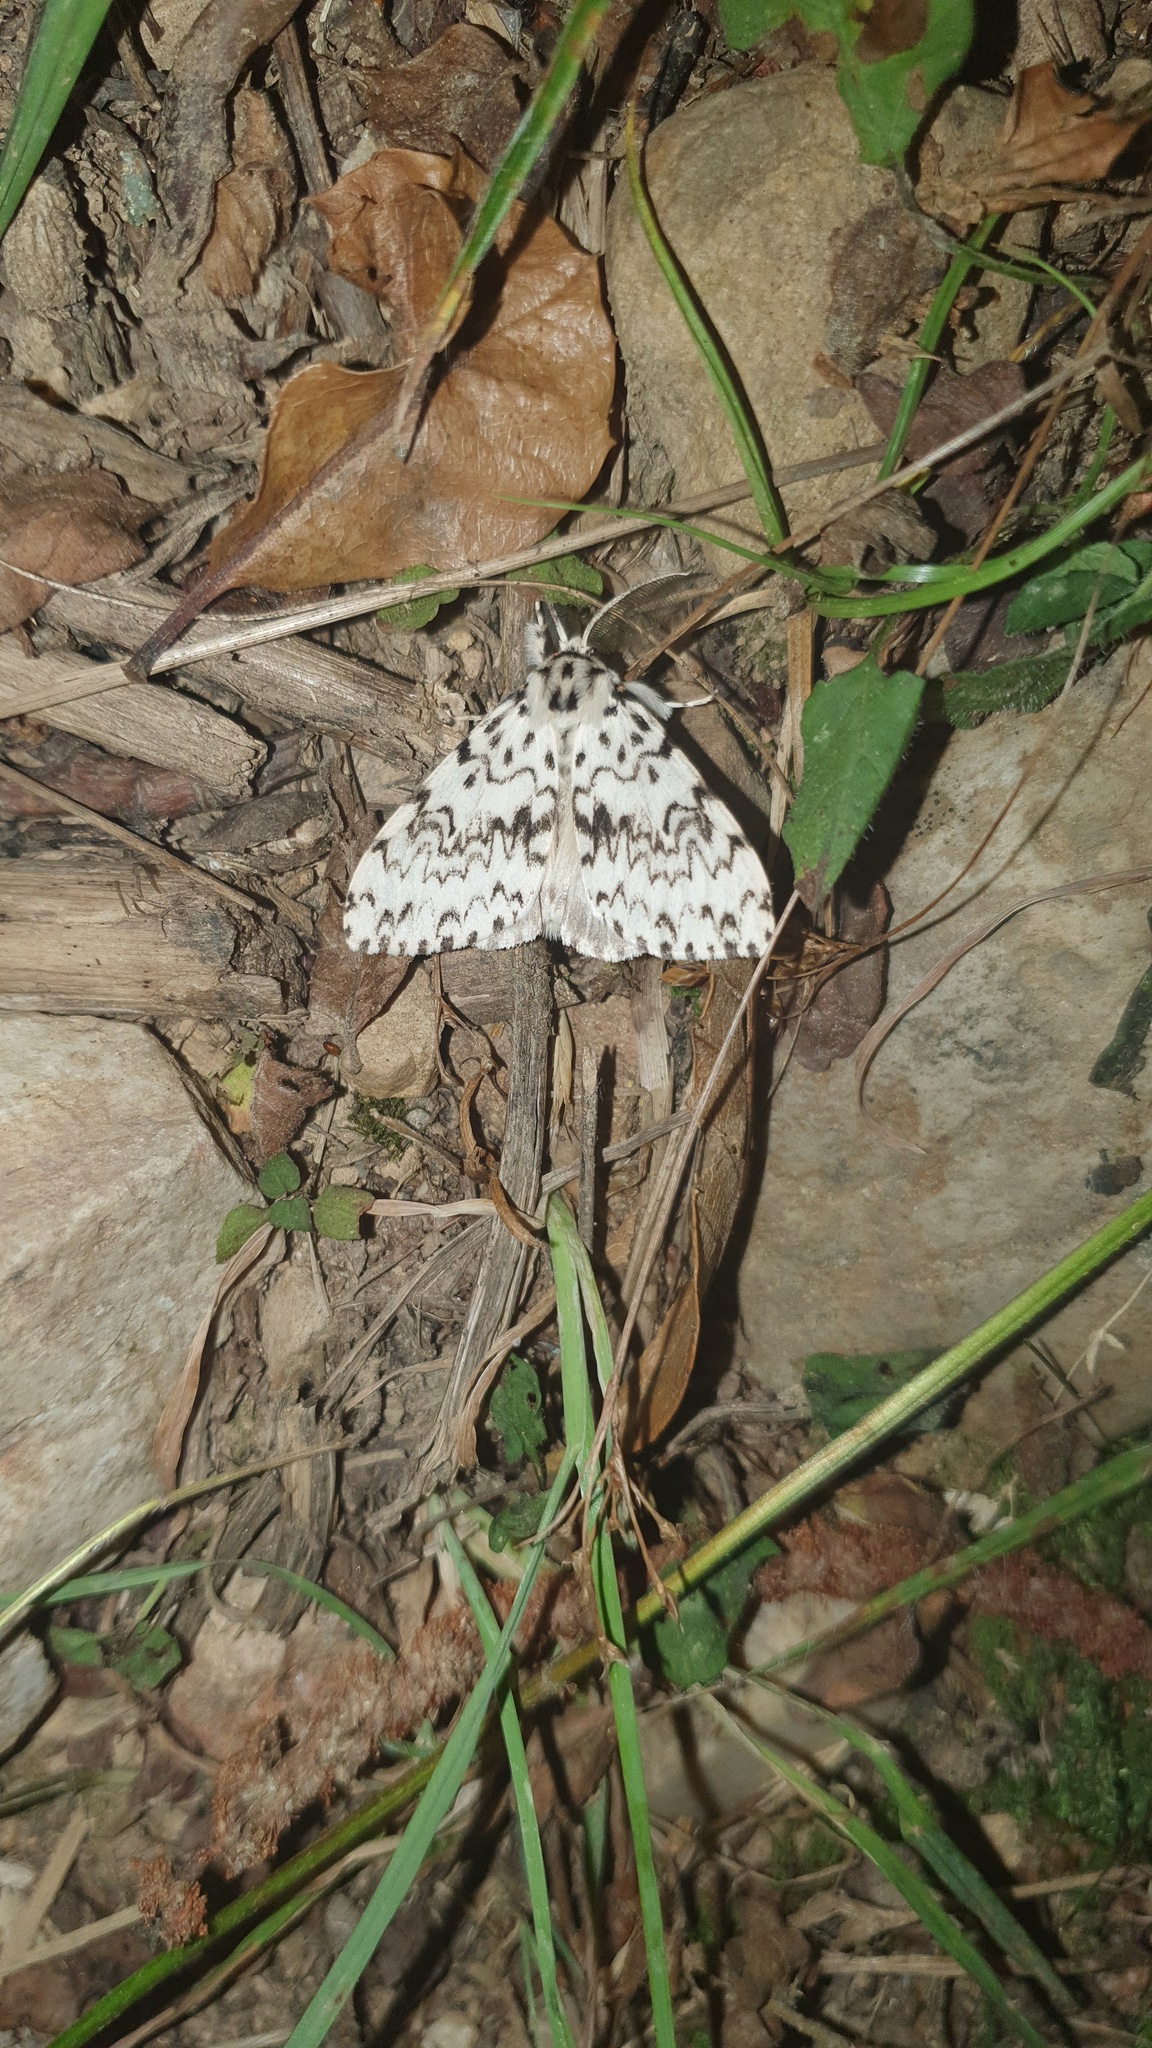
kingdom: Animalia
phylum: Arthropoda
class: Insecta
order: Lepidoptera
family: Erebidae
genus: Lymantria
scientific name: Lymantria monacha
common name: Black arches
